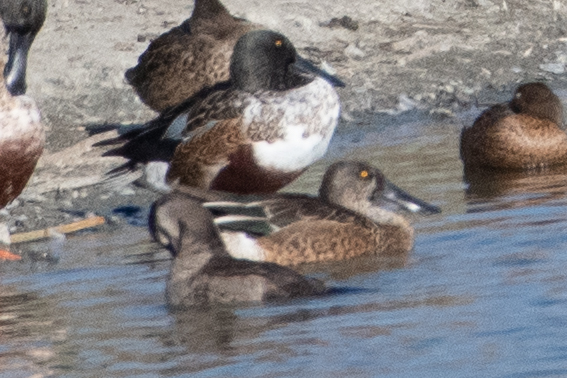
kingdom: Animalia
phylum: Chordata
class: Aves
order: Anseriformes
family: Anatidae
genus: Spatula
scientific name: Spatula clypeata
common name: Northern shoveler
